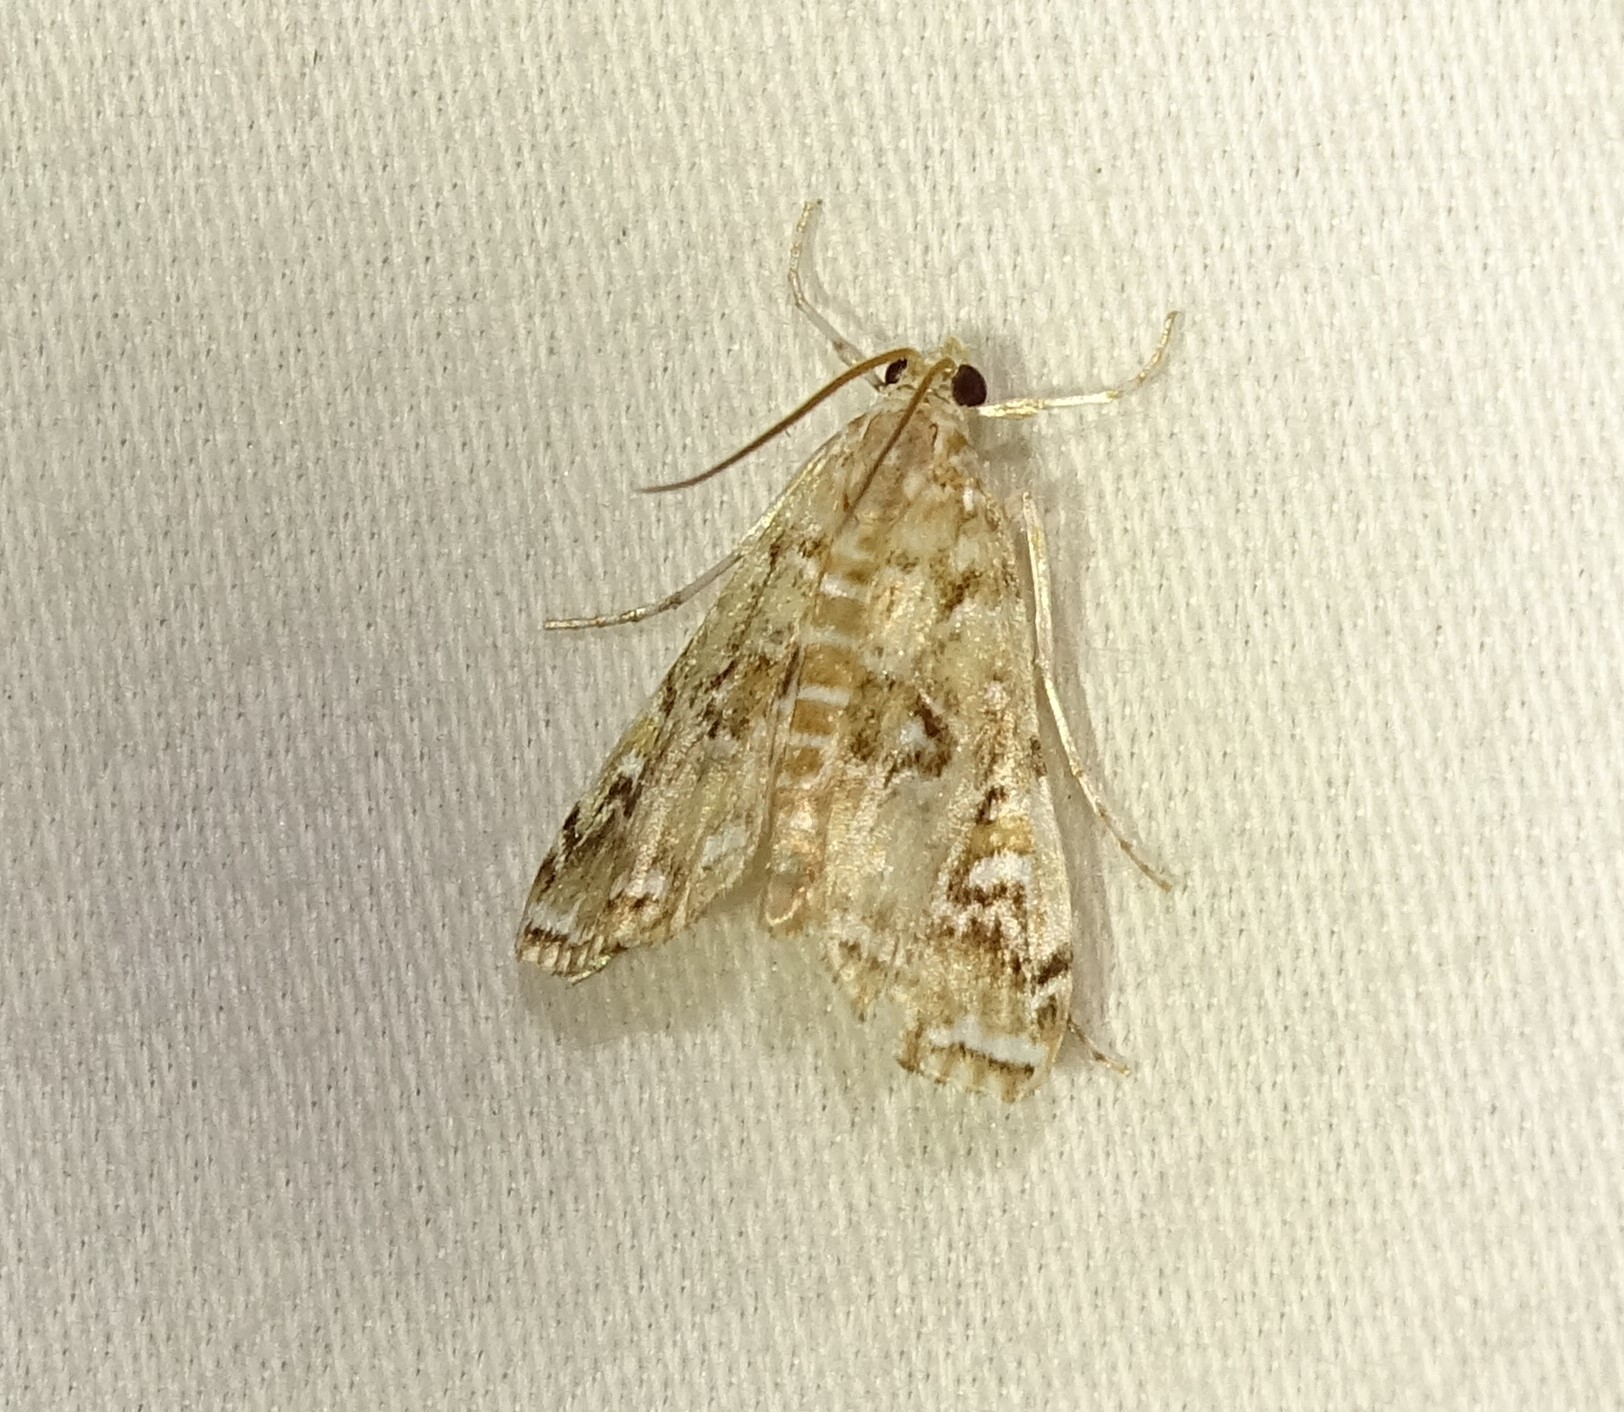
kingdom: Animalia
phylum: Arthropoda
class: Insecta
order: Lepidoptera
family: Crambidae
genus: Elophila
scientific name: Elophila gyralis
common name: Waterlily borer moth
